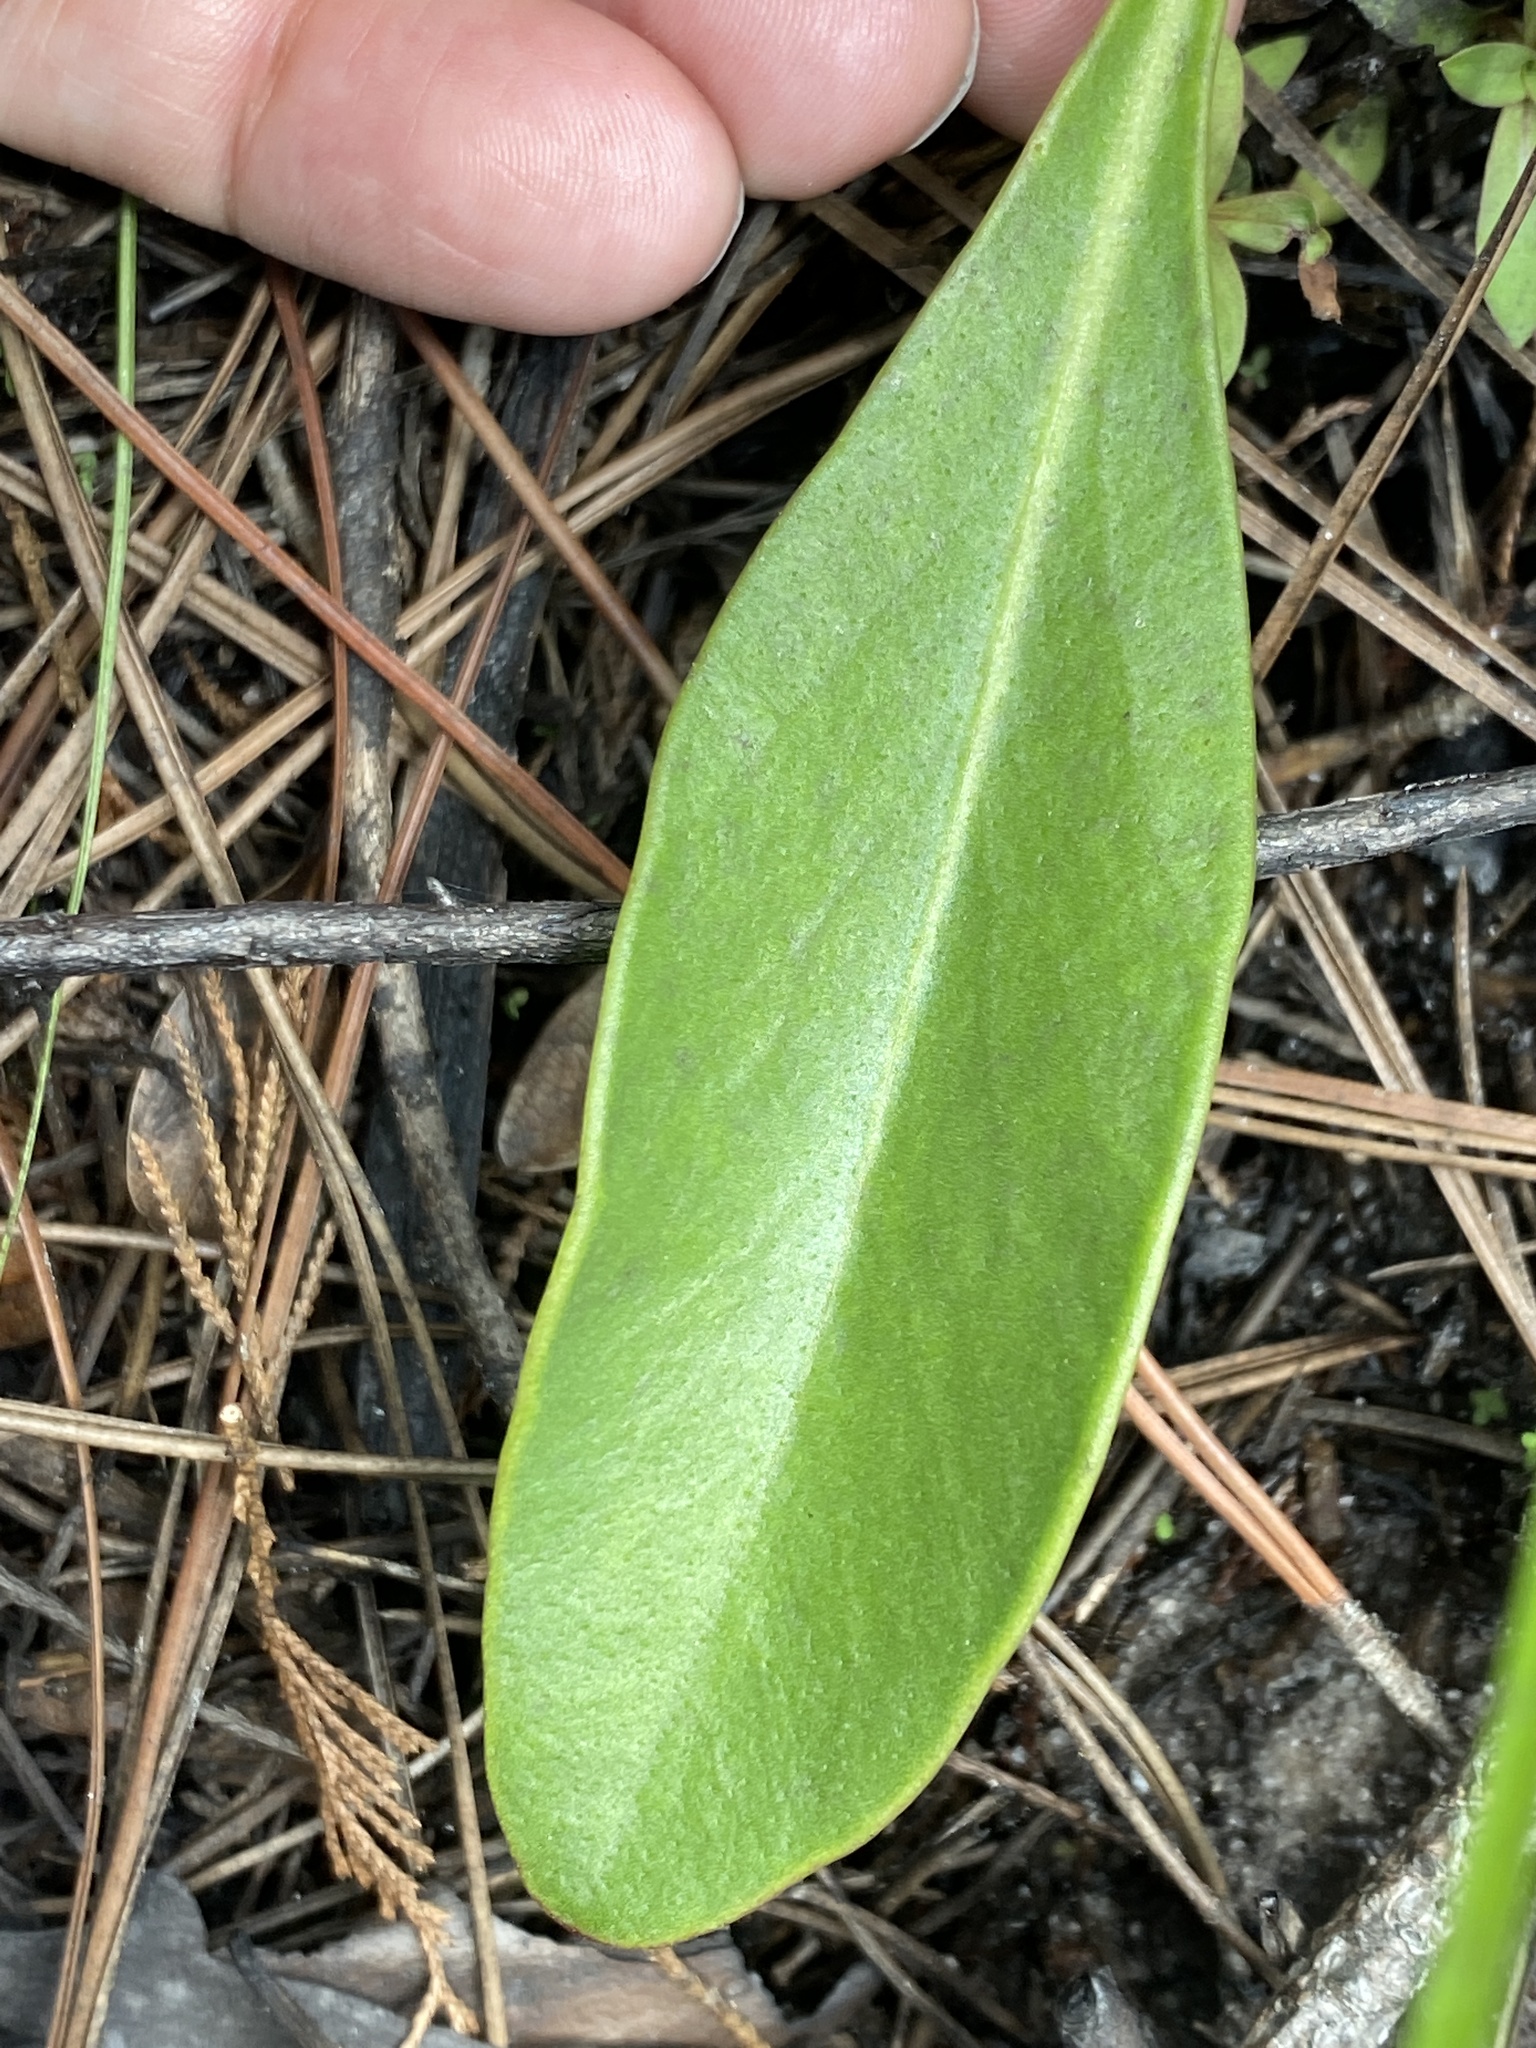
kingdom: Plantae
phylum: Tracheophyta
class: Magnoliopsida
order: Asterales
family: Asteraceae
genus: Coreopsis
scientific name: Coreopsis gladiata
